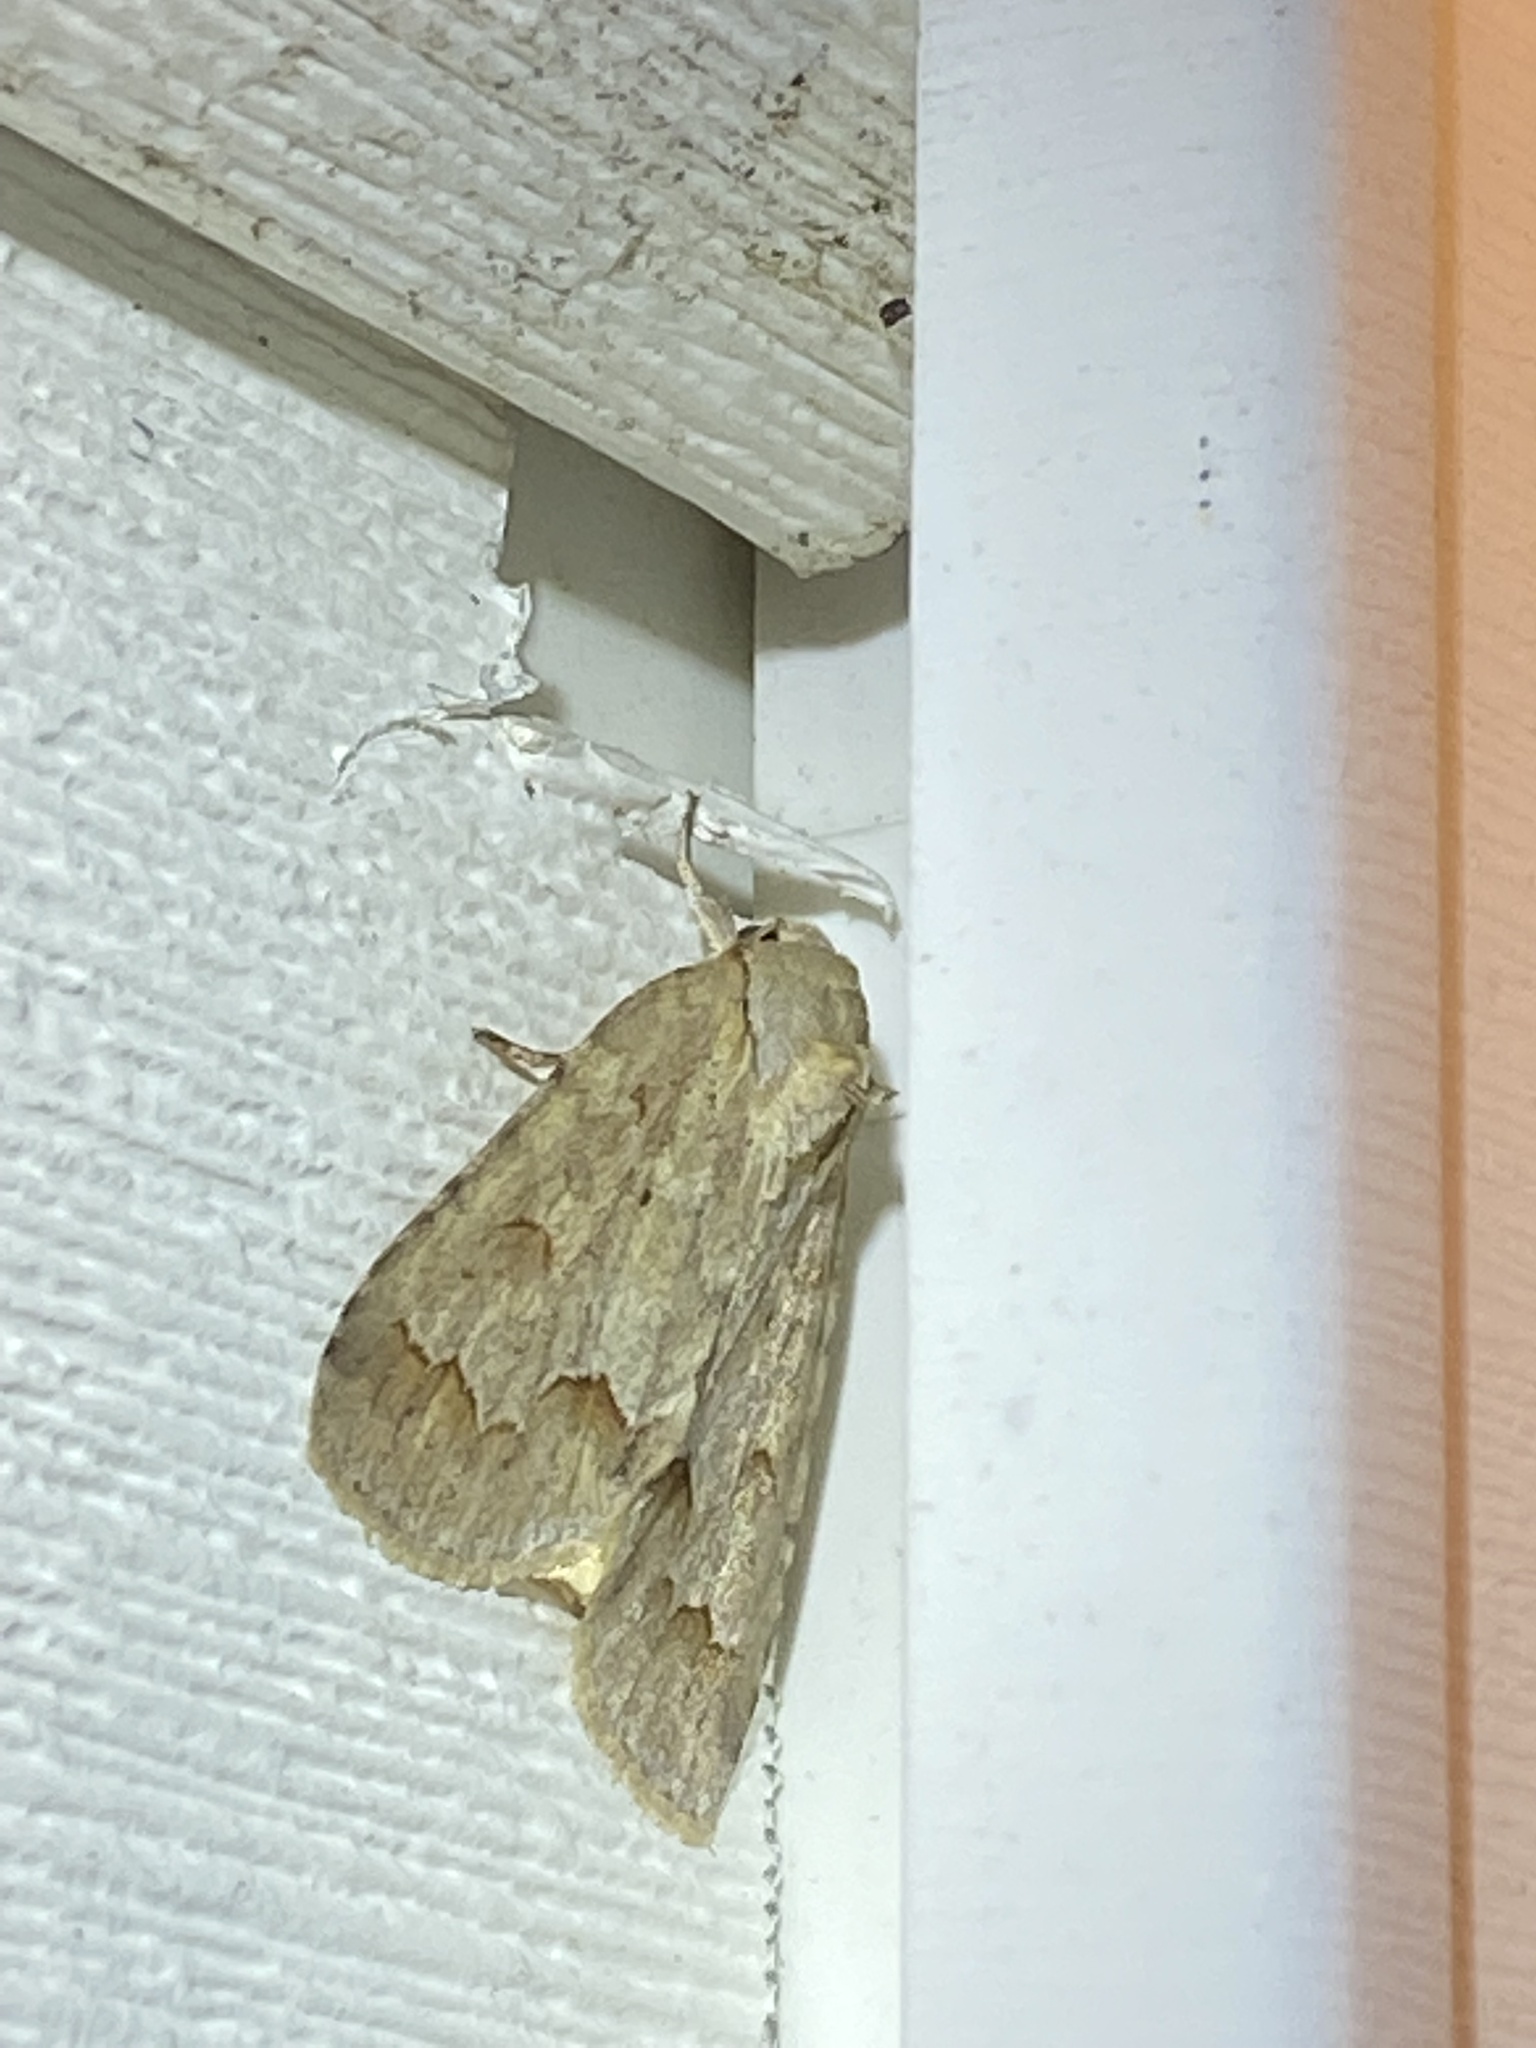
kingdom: Animalia
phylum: Arthropoda
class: Insecta
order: Lepidoptera
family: Noctuidae
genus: Acronicta
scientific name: Acronicta betulae
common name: Birch dagger moth
